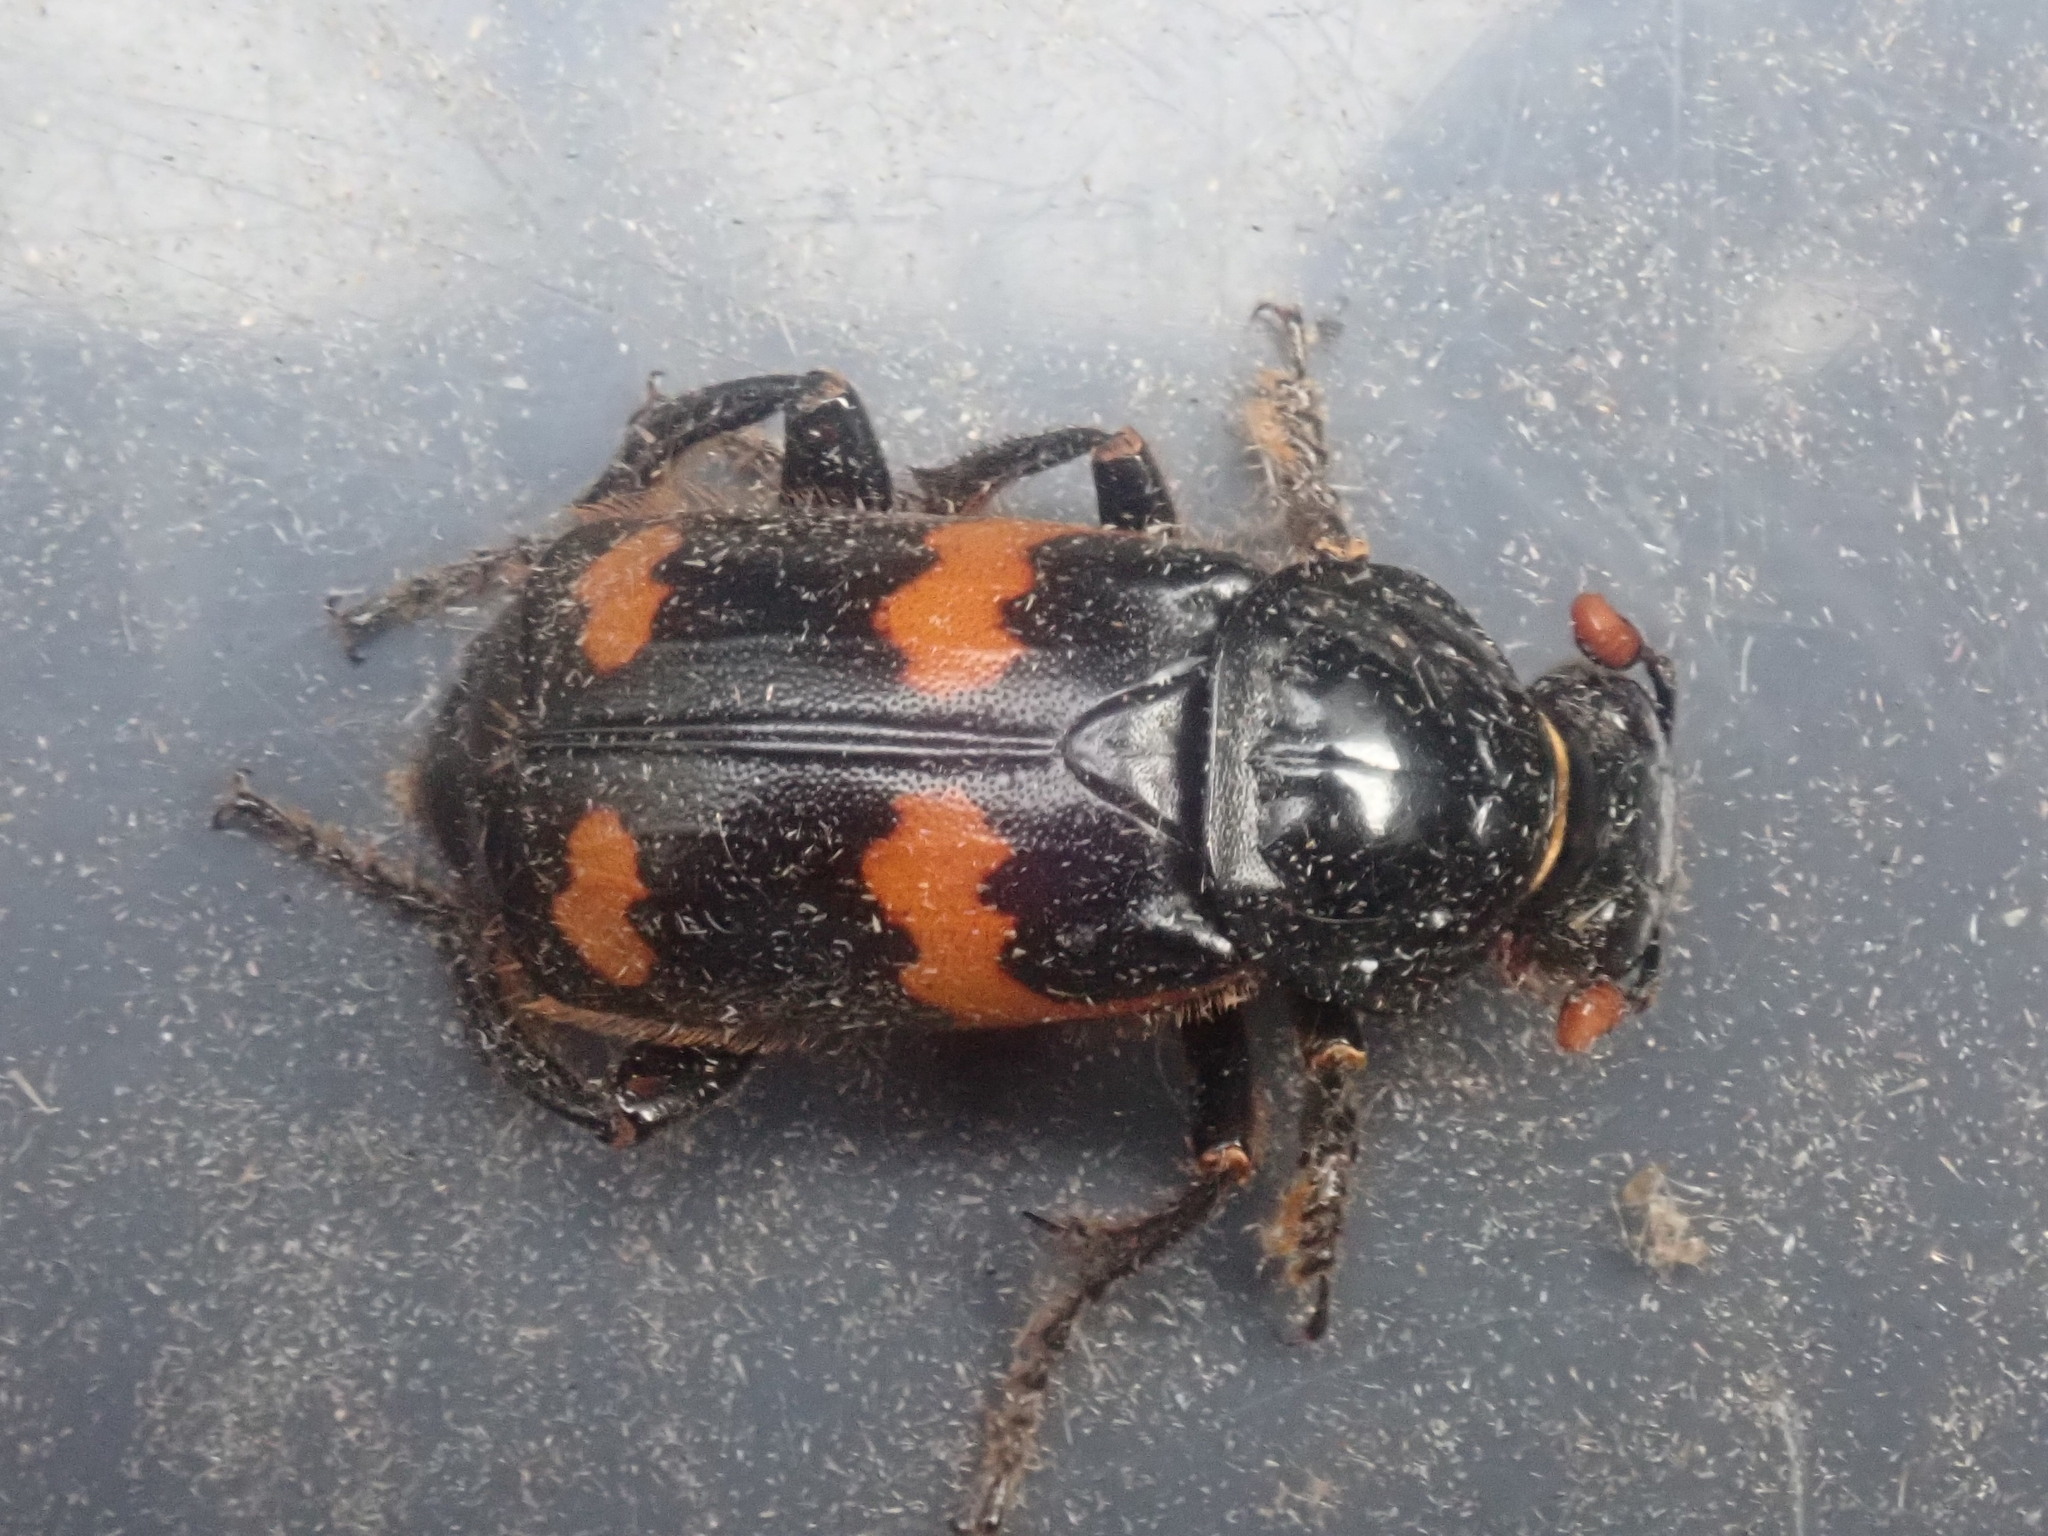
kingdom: Animalia
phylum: Arthropoda
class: Insecta
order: Coleoptera
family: Staphylinidae
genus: Nicrophorus
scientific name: Nicrophorus sayi
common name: Say's burying beetle
